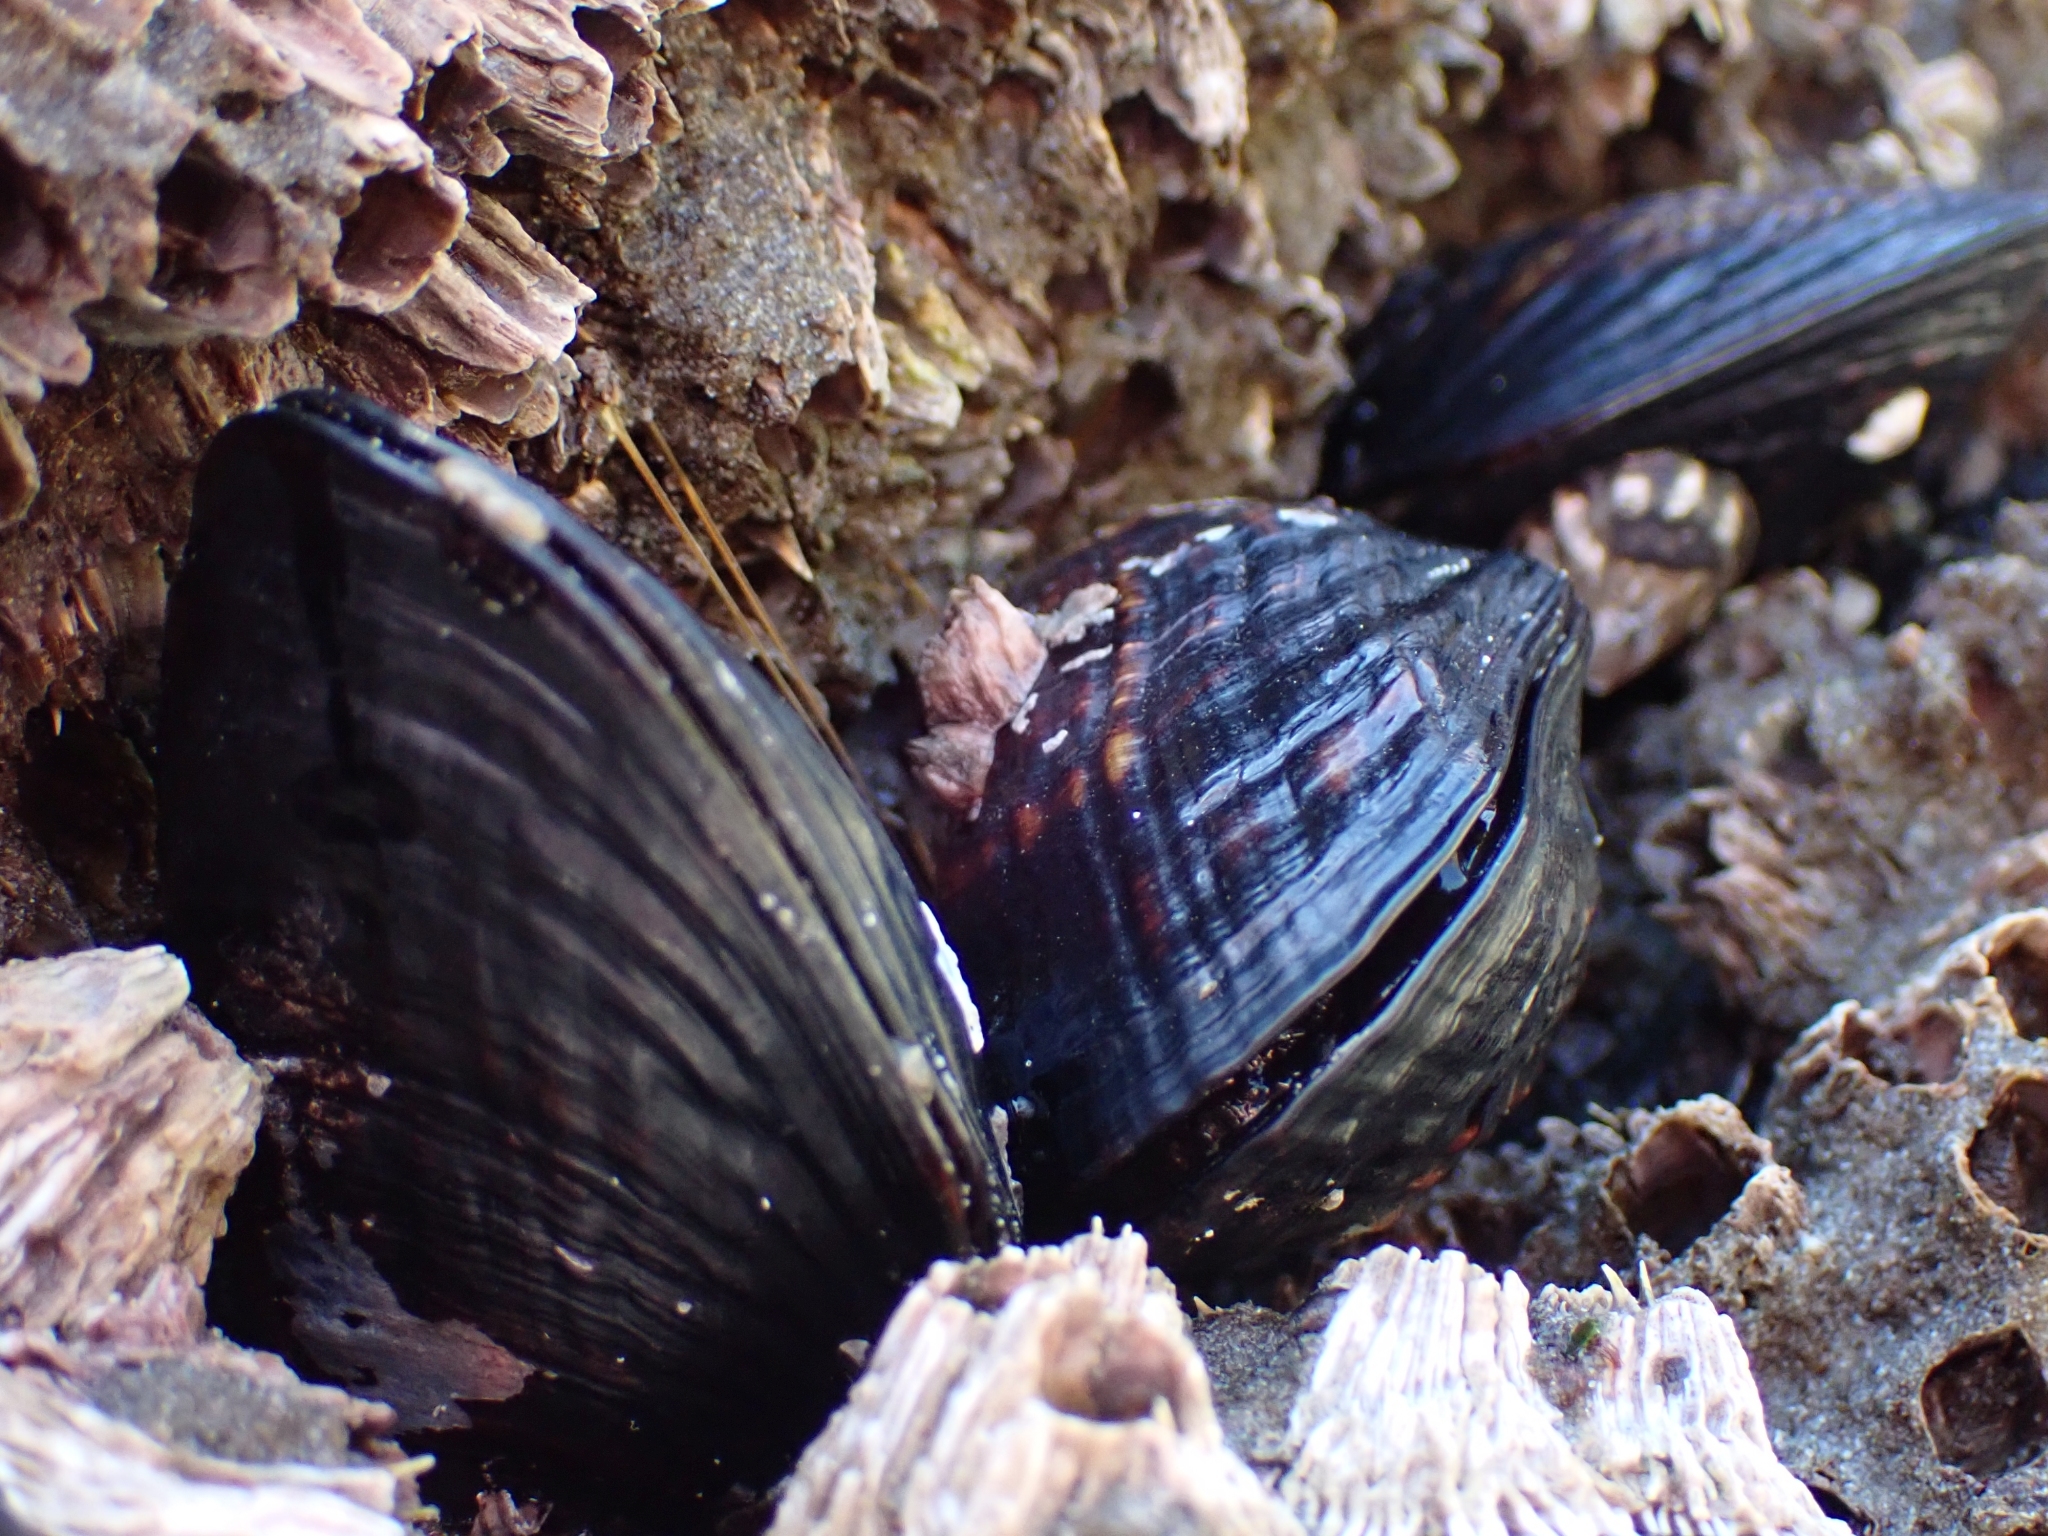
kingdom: Animalia
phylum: Mollusca
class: Bivalvia
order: Mytilida
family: Mytilidae
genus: Mytilus
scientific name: Mytilus californianus
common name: California mussel
